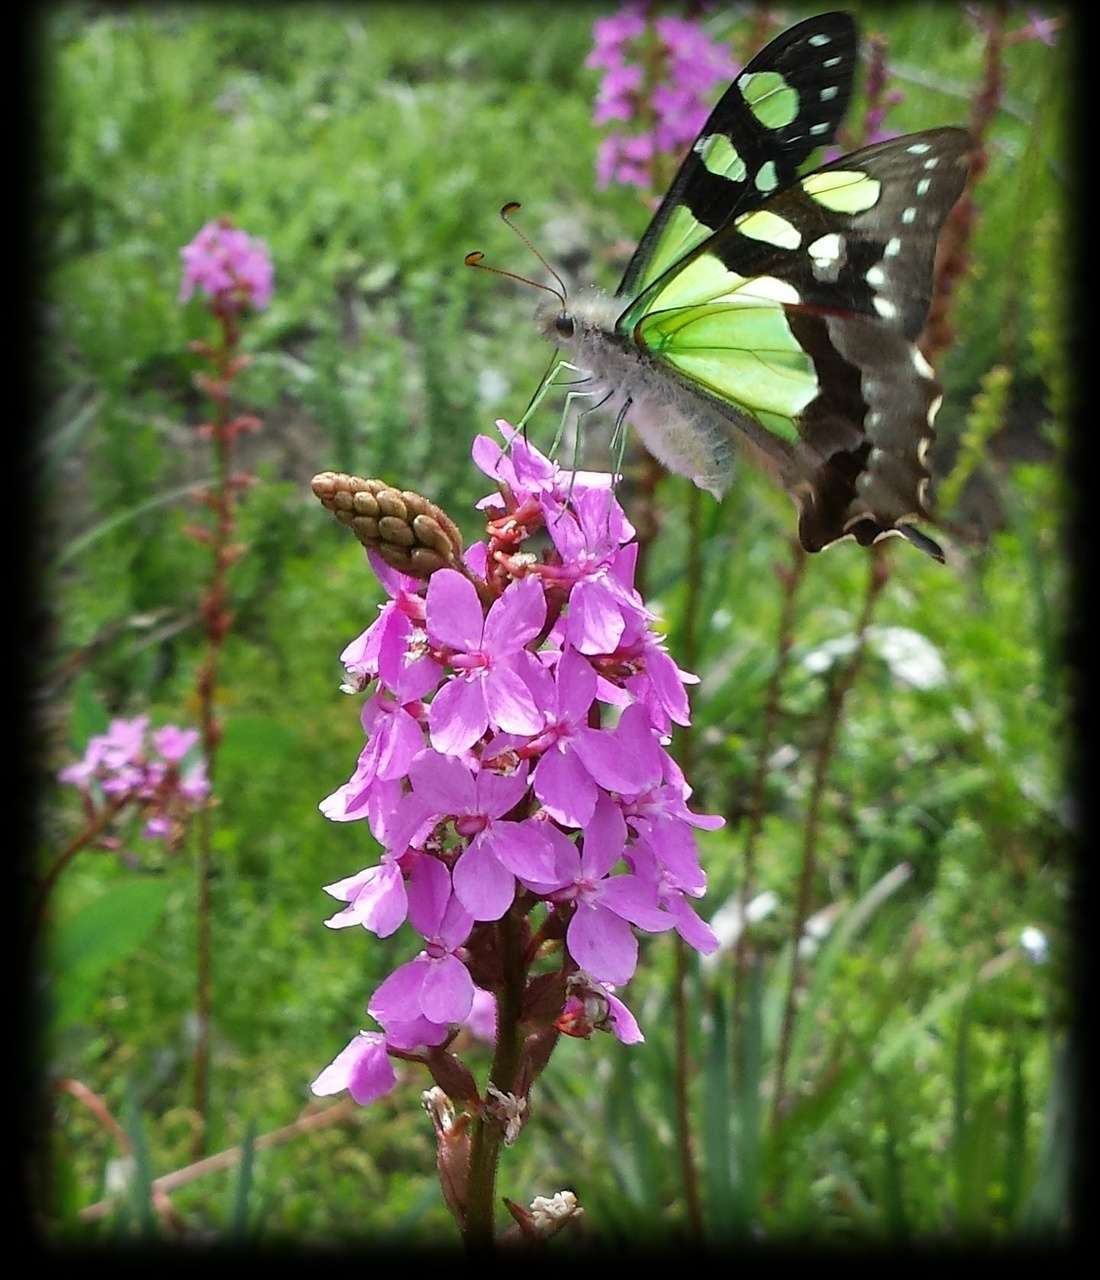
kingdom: Animalia
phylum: Arthropoda
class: Insecta
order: Lepidoptera
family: Papilionidae
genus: Graphium
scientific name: Graphium macleayanus
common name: Macleay's swallowtail
